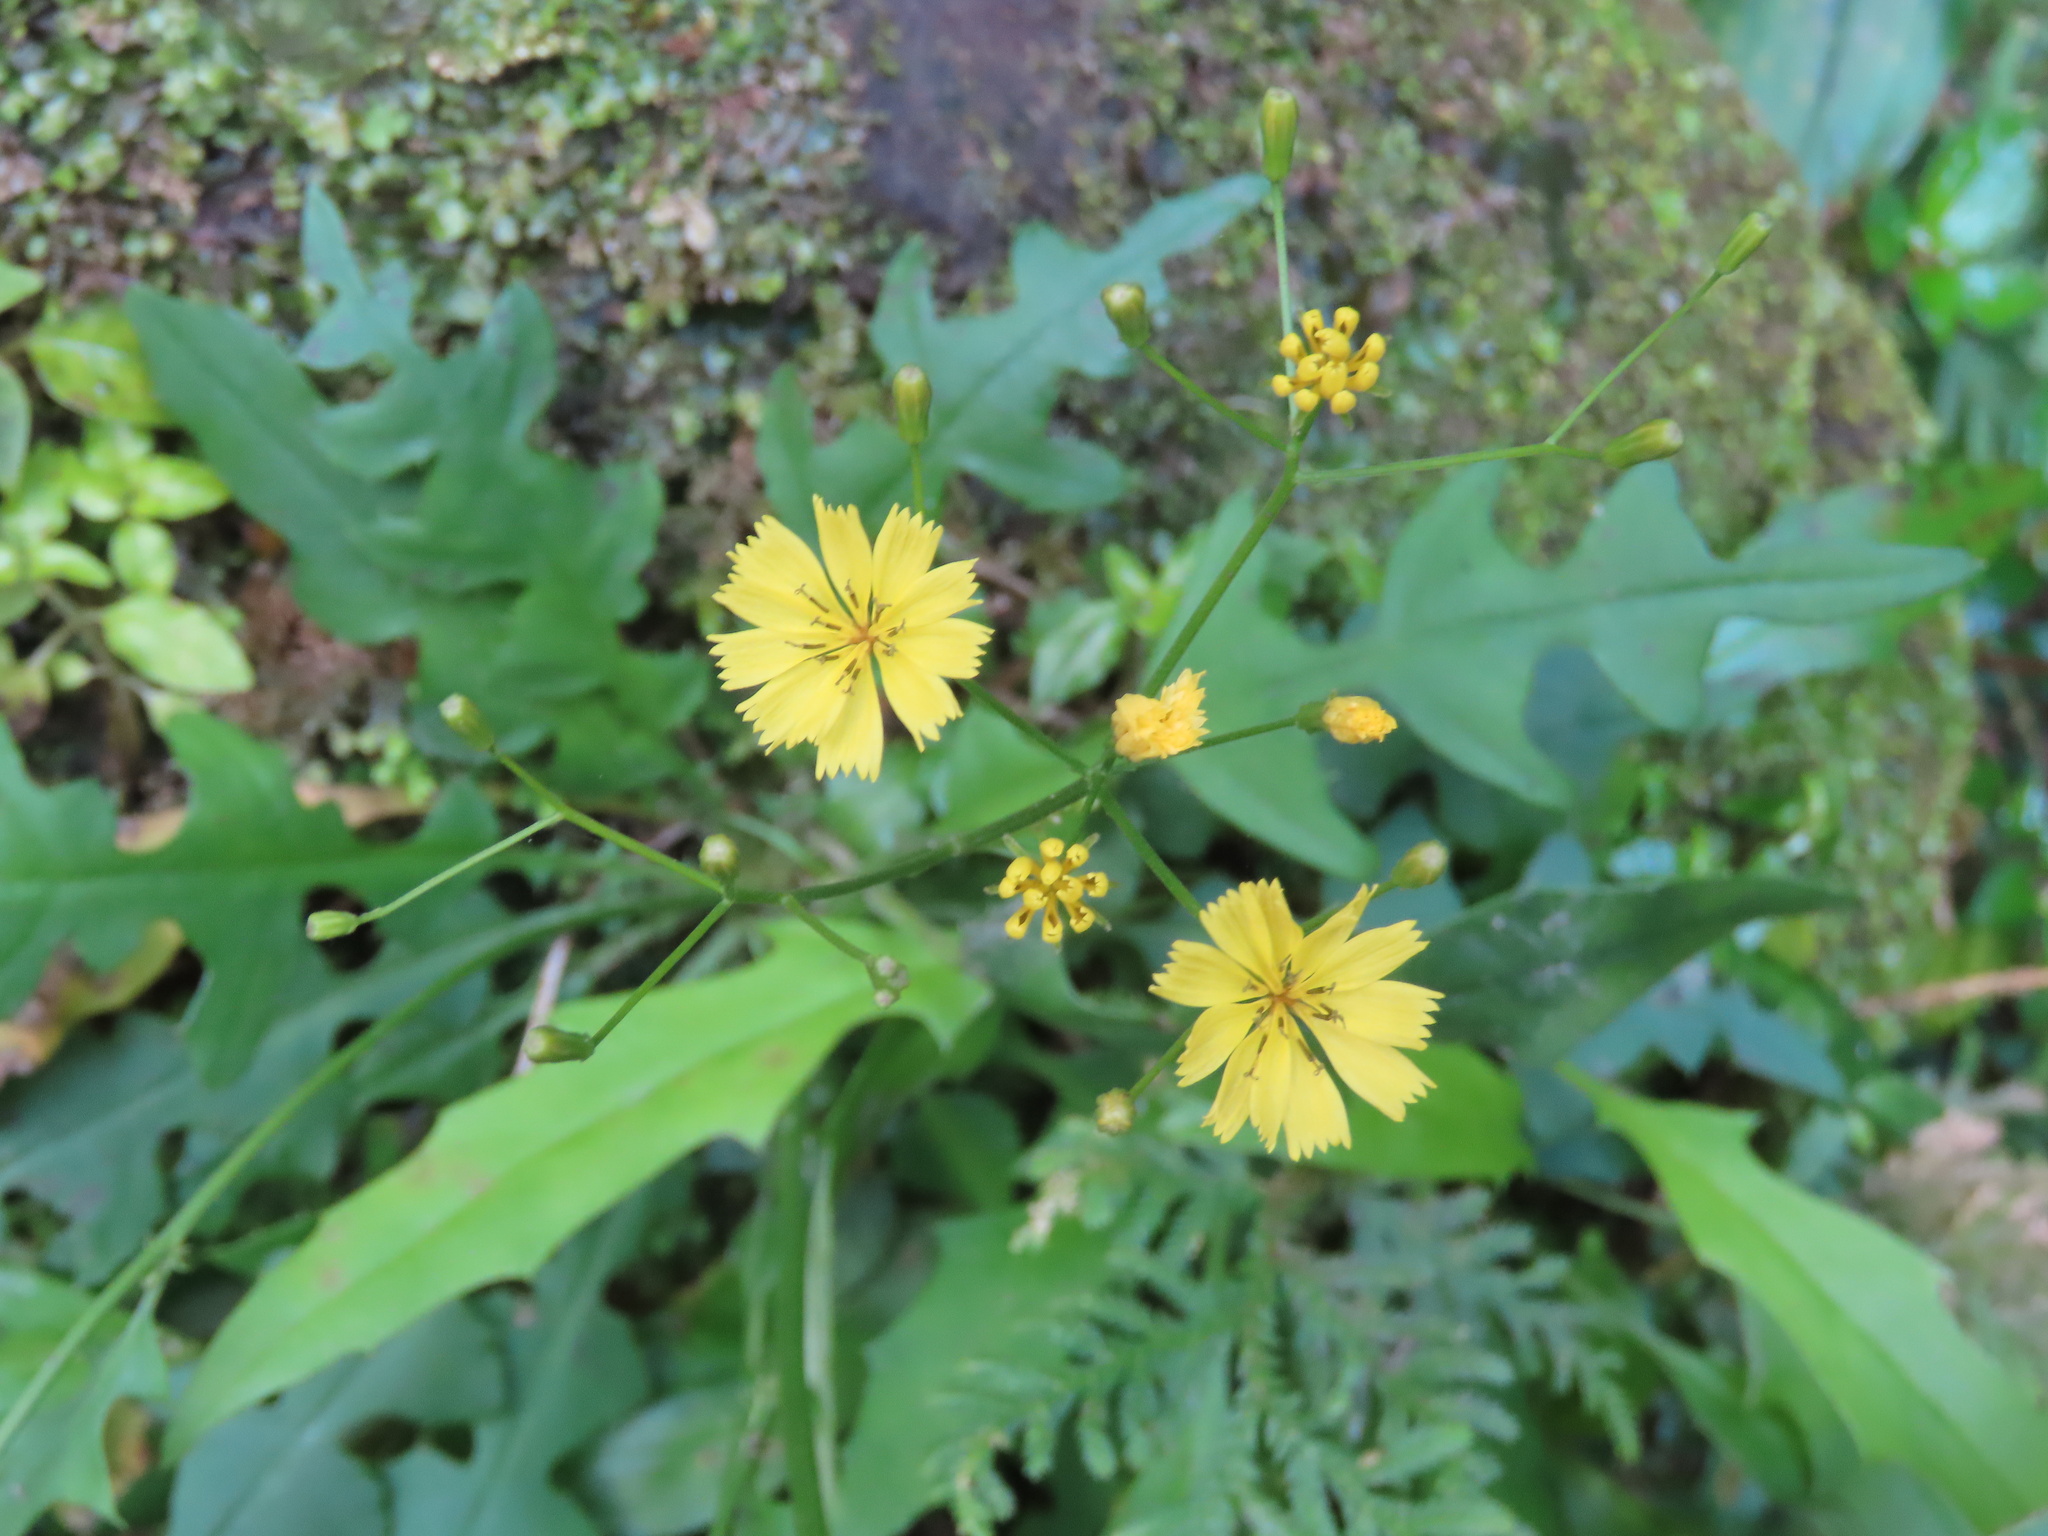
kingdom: Plantae
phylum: Tracheophyta
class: Magnoliopsida
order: Asterales
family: Asteraceae
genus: Ixeridium
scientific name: Ixeridium laevigatum
